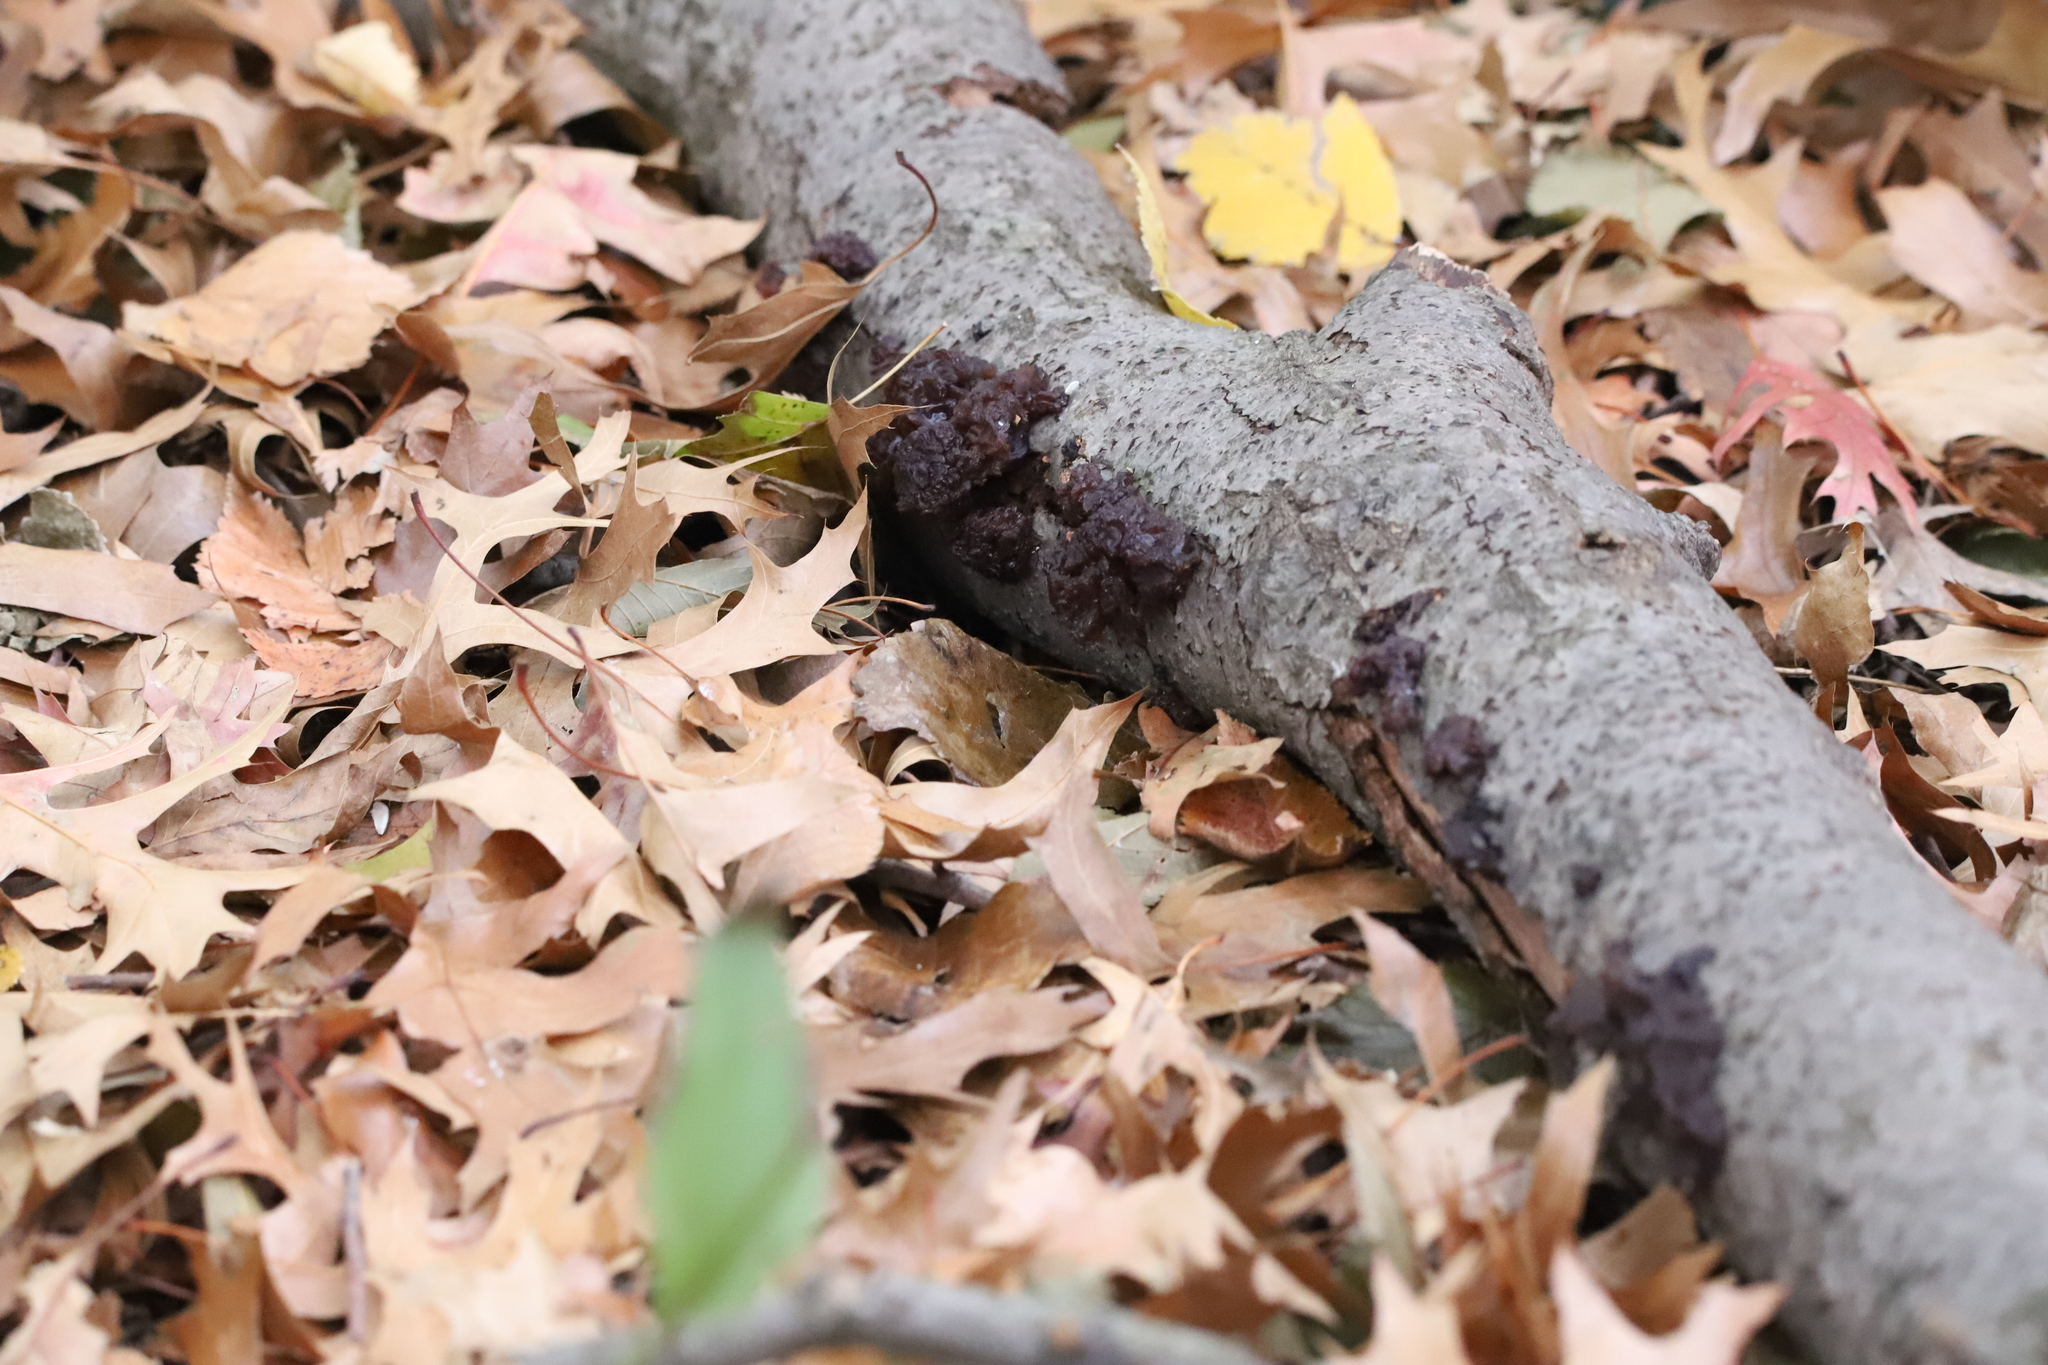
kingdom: Fungi
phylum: Basidiomycota
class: Agaricomycetes
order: Auriculariales
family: Auriculariaceae
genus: Exidia
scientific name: Exidia
